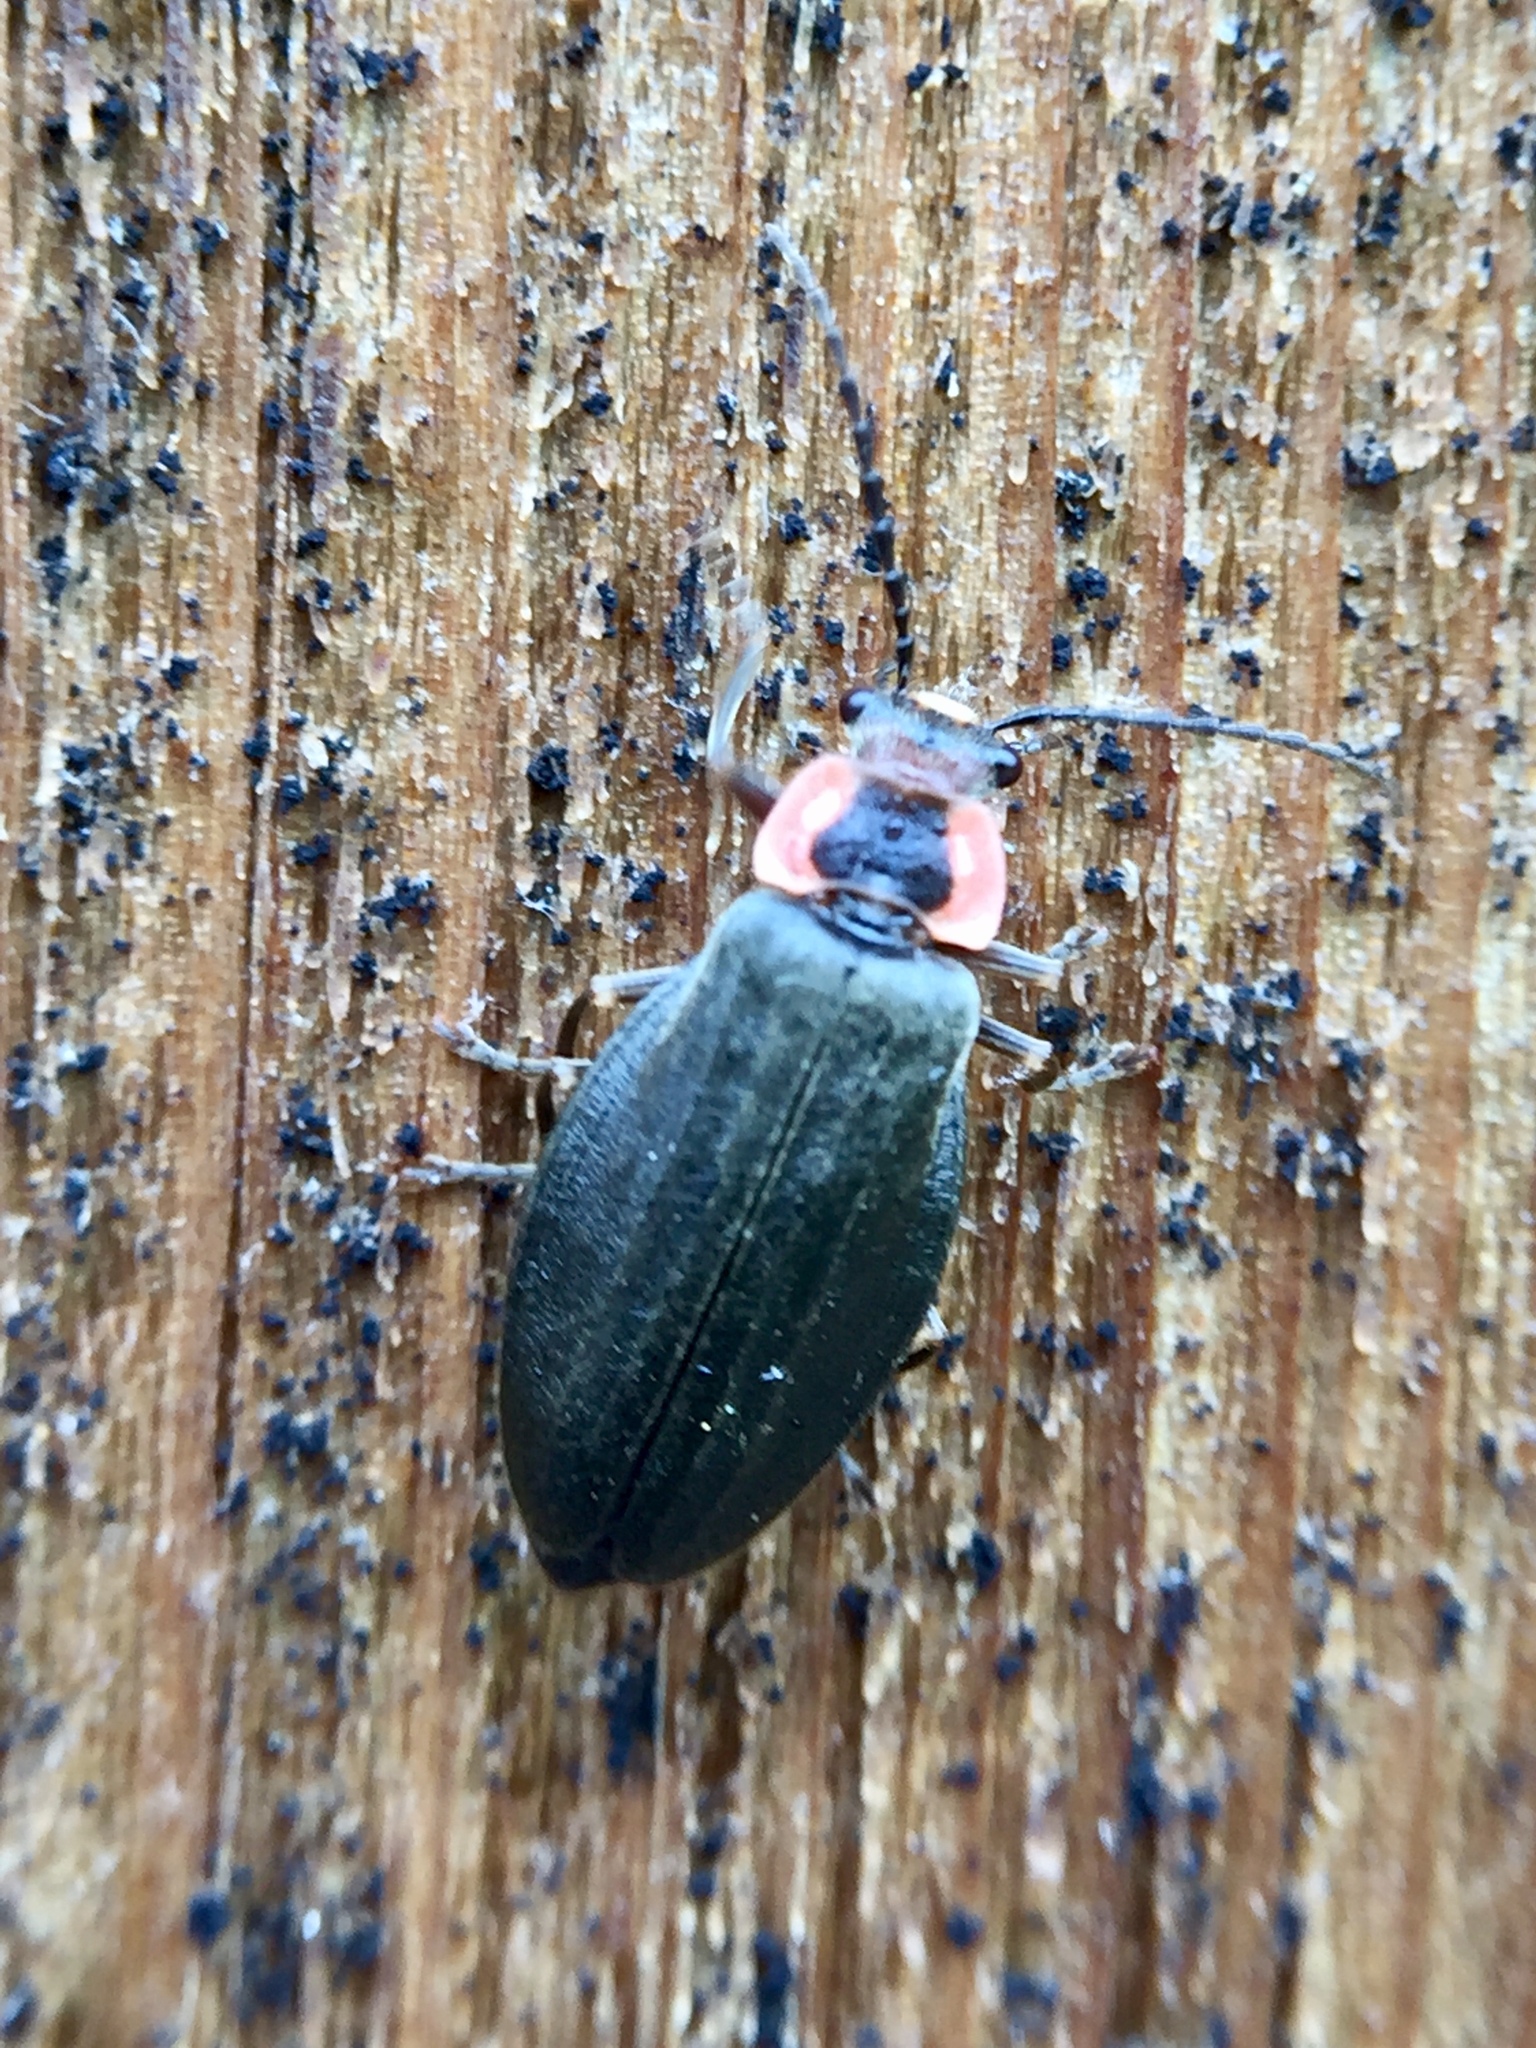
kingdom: Animalia
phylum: Arthropoda
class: Insecta
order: Coleoptera
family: Cantharidae
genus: Podabrus
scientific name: Podabrus tricostatus
